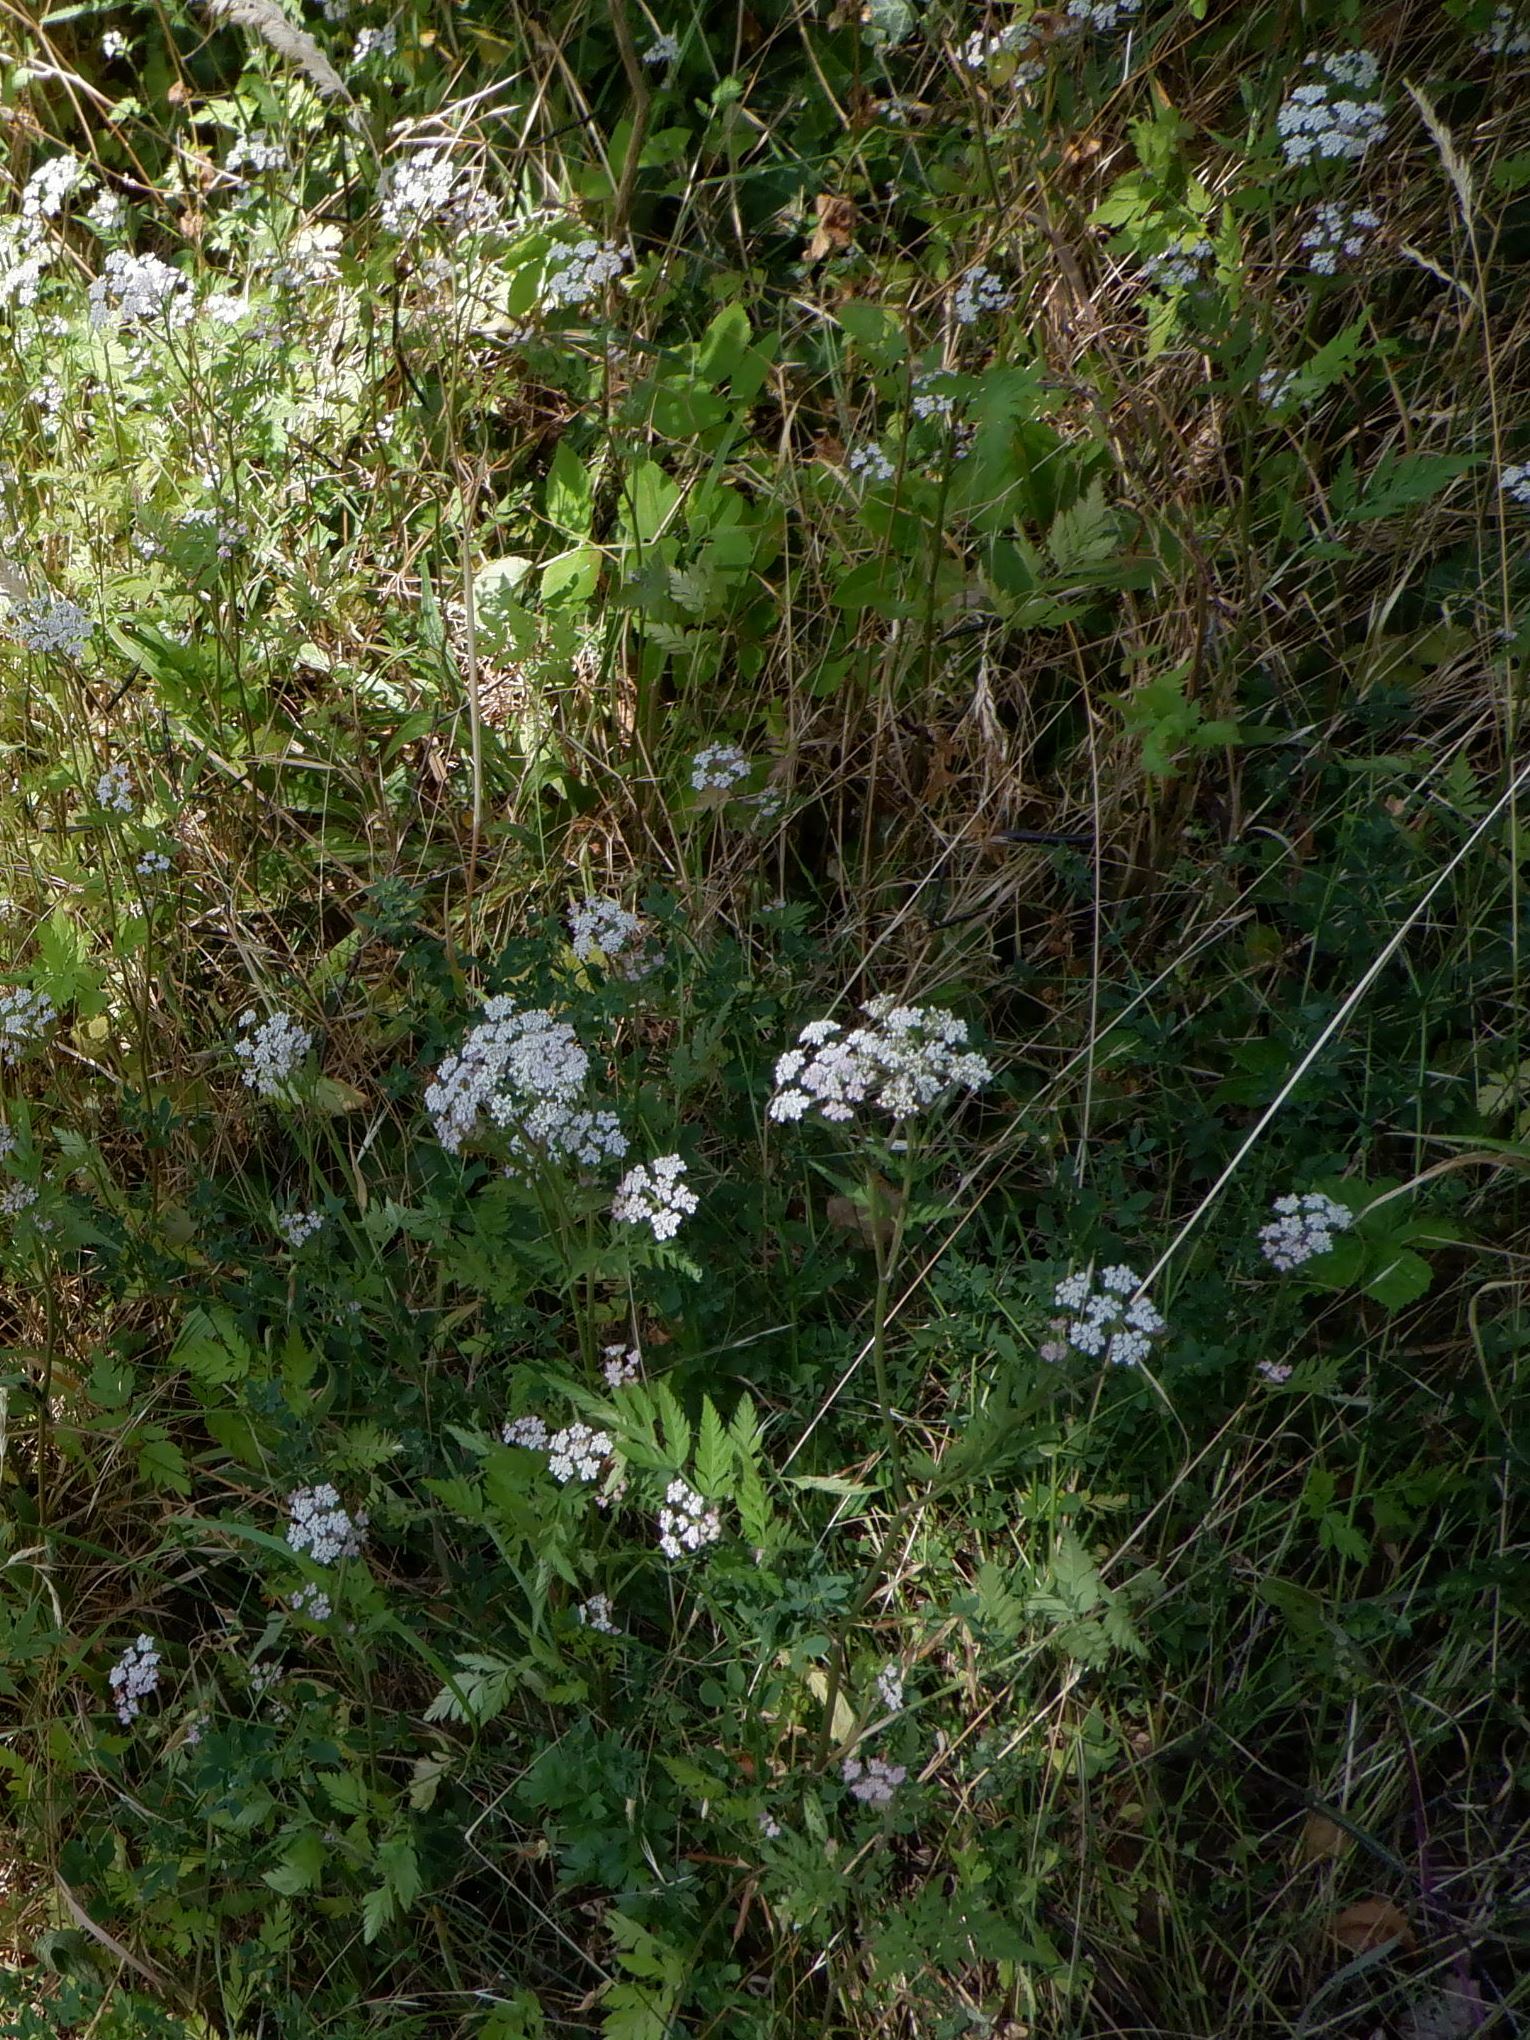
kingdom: Plantae
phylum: Tracheophyta
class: Magnoliopsida
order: Apiales
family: Apiaceae
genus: Torilis
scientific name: Torilis japonica
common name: Upright hedge-parsley
